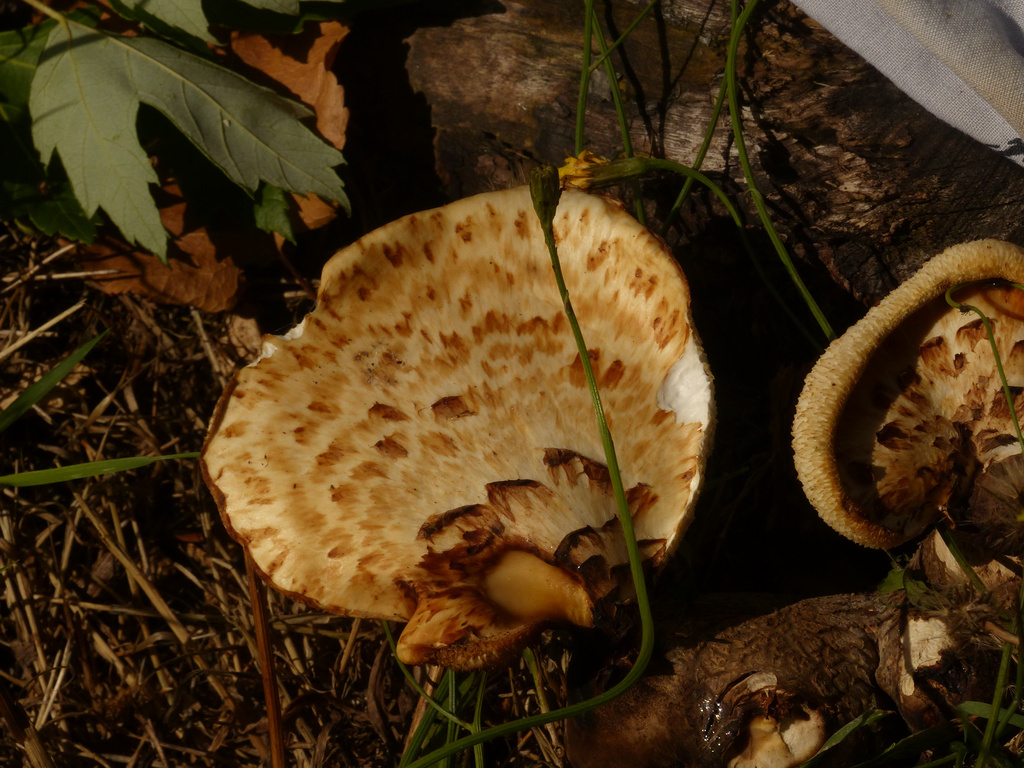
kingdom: Fungi
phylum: Basidiomycota
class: Agaricomycetes
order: Polyporales
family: Polyporaceae
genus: Cerioporus
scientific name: Cerioporus squamosus
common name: Dryad's saddle
